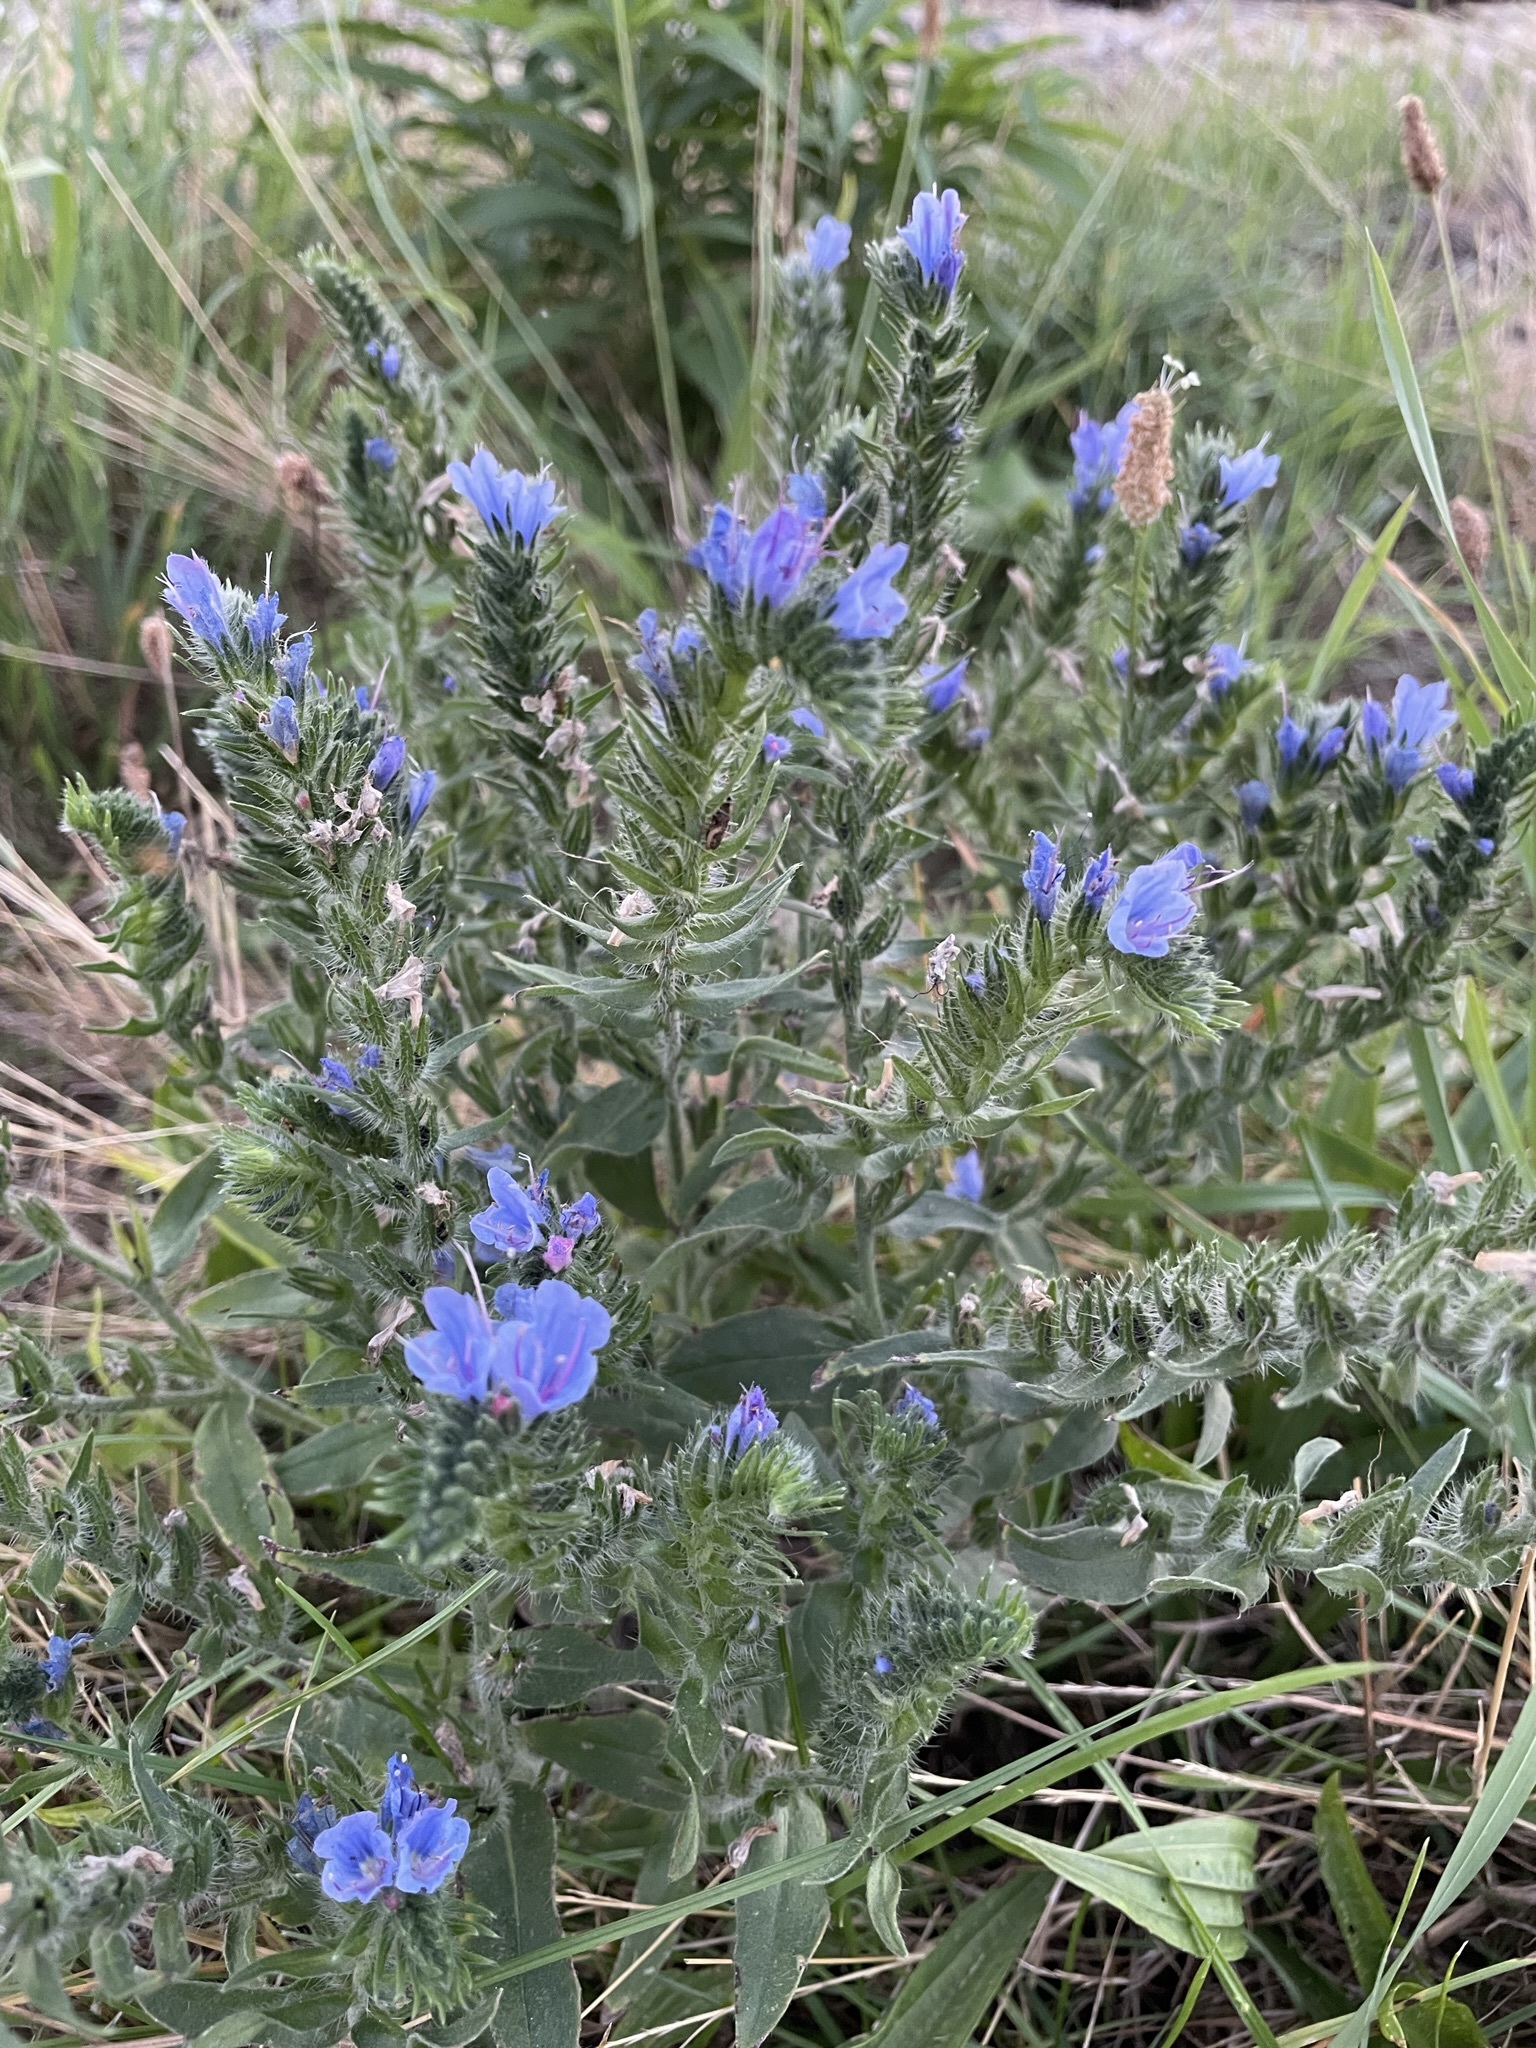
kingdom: Plantae
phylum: Tracheophyta
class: Magnoliopsida
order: Boraginales
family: Boraginaceae
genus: Echium
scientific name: Echium vulgare
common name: Common viper's bugloss
